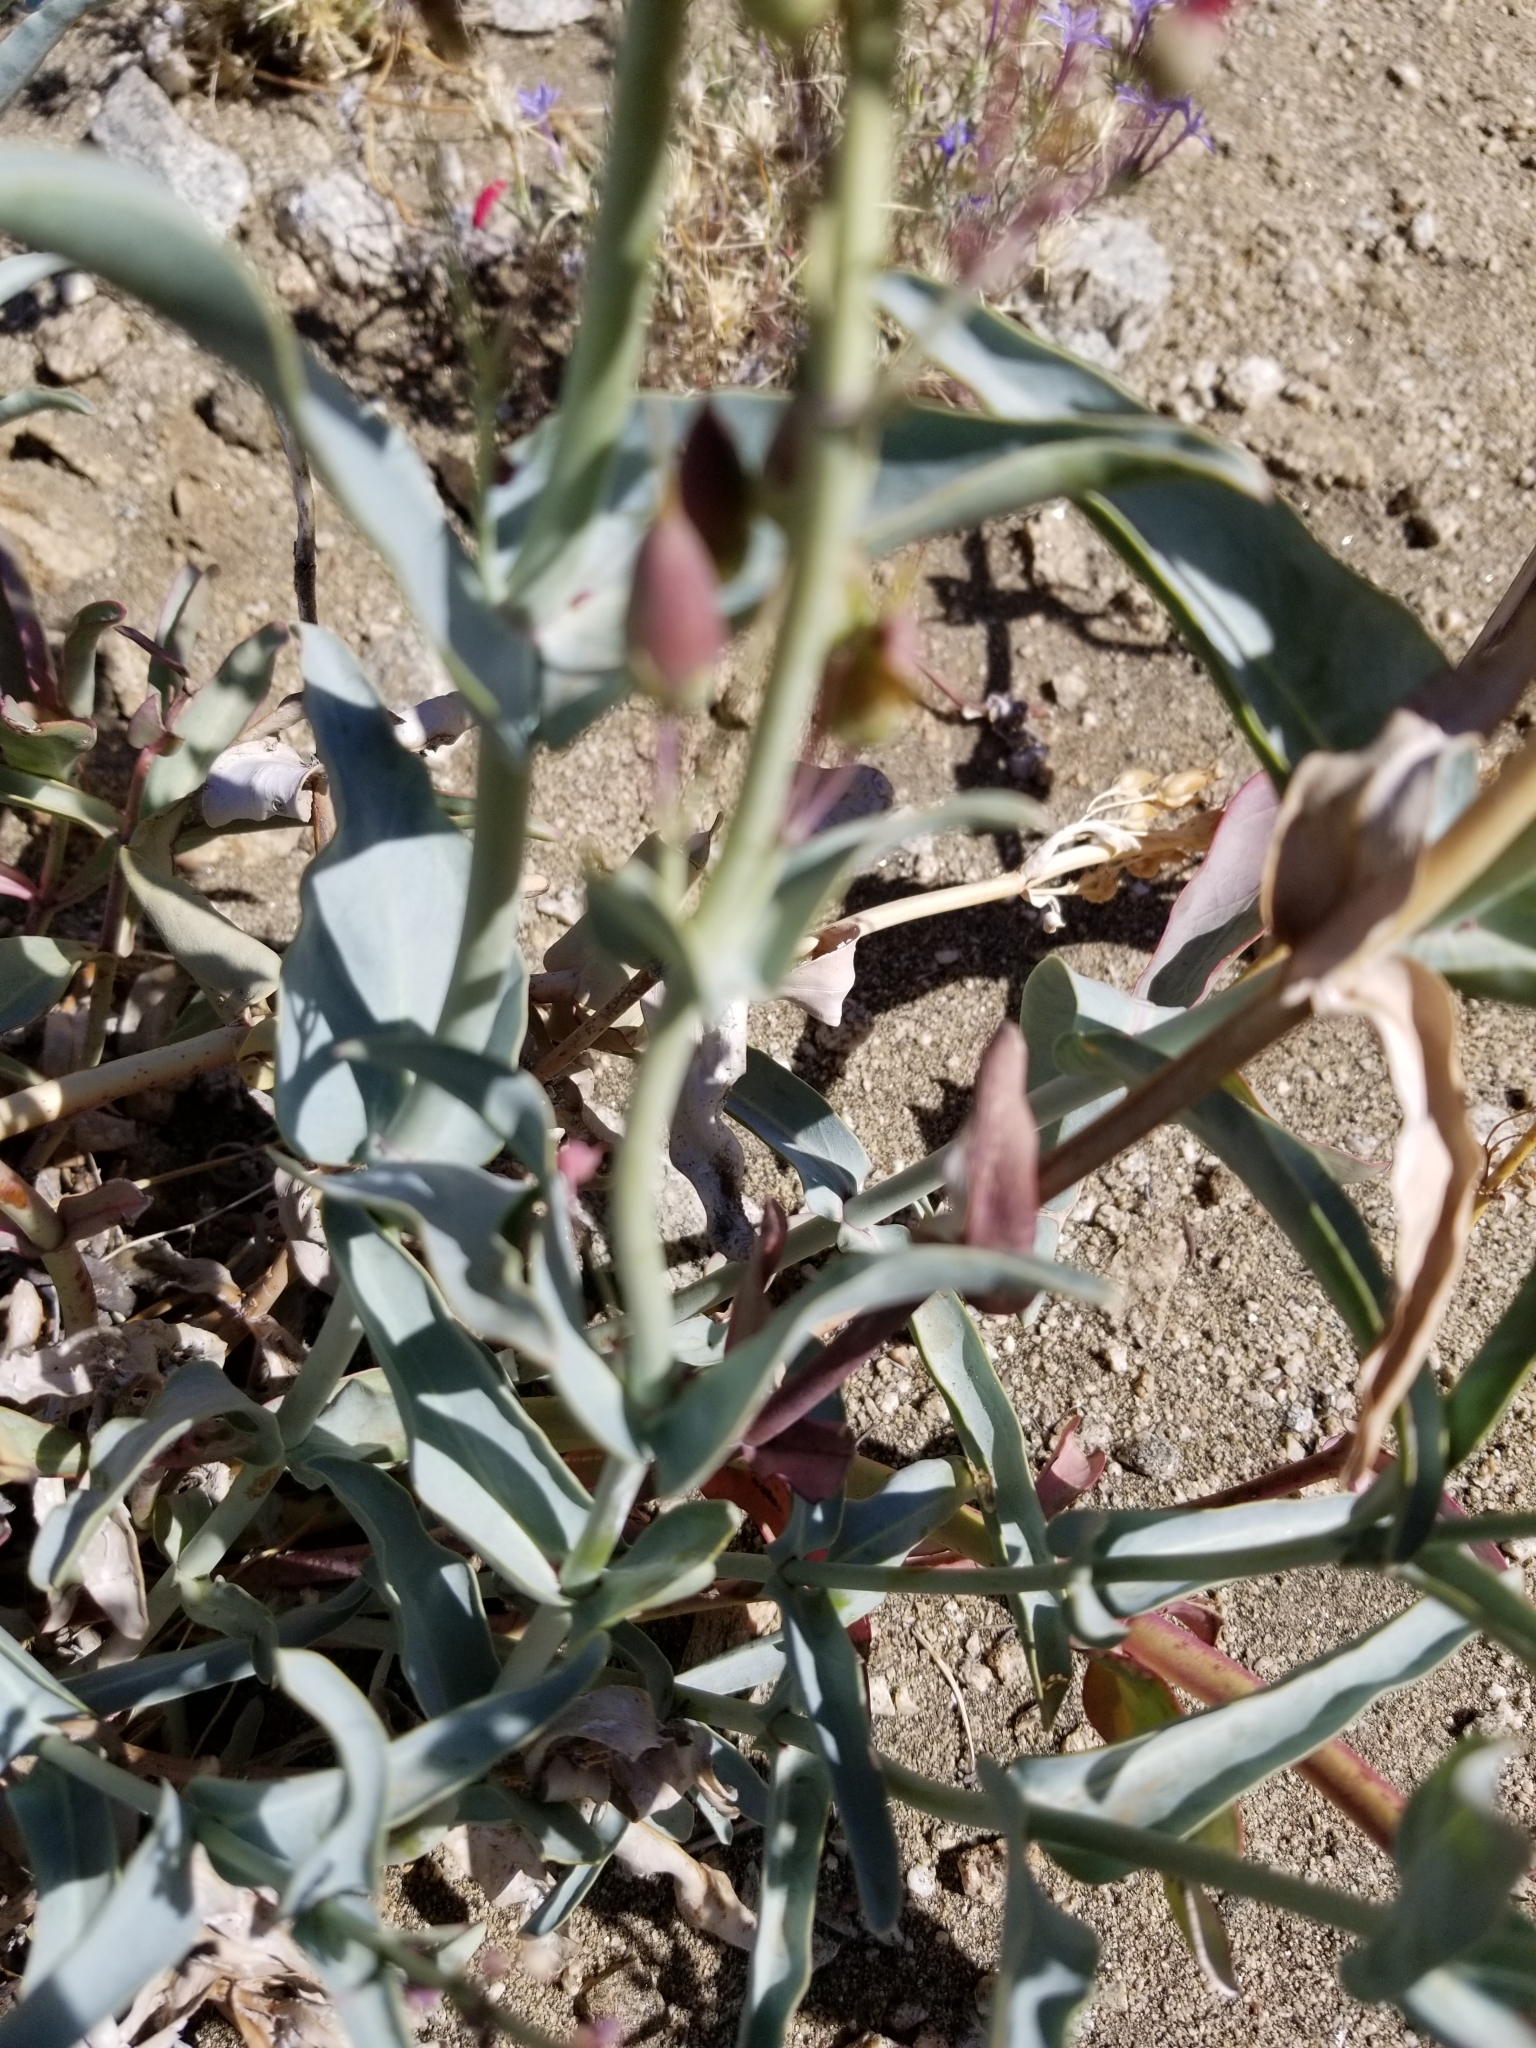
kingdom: Plantae
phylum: Tracheophyta
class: Magnoliopsida
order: Lamiales
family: Plantaginaceae
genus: Penstemon
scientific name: Penstemon centranthifolius
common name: Scarlet bugler
